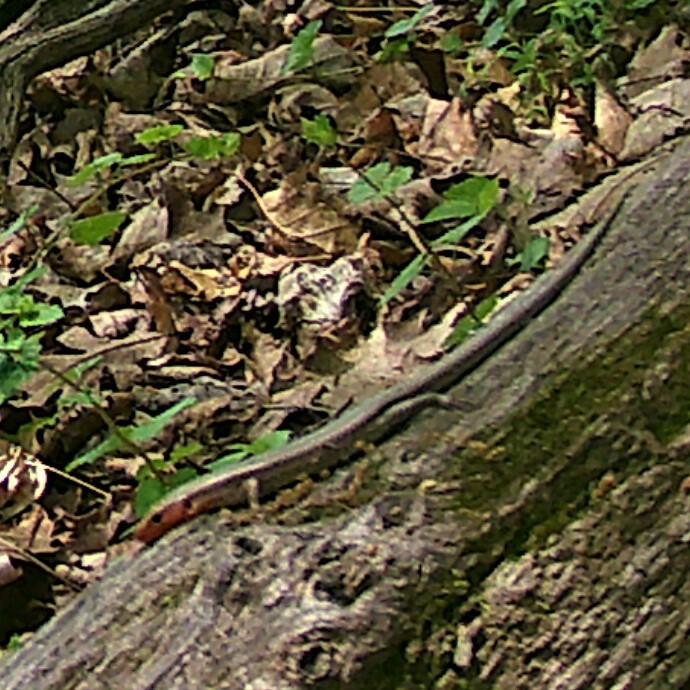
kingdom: Animalia
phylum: Chordata
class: Squamata
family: Scincidae
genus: Plestiodon
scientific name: Plestiodon fasciatus
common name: Five-lined skink
